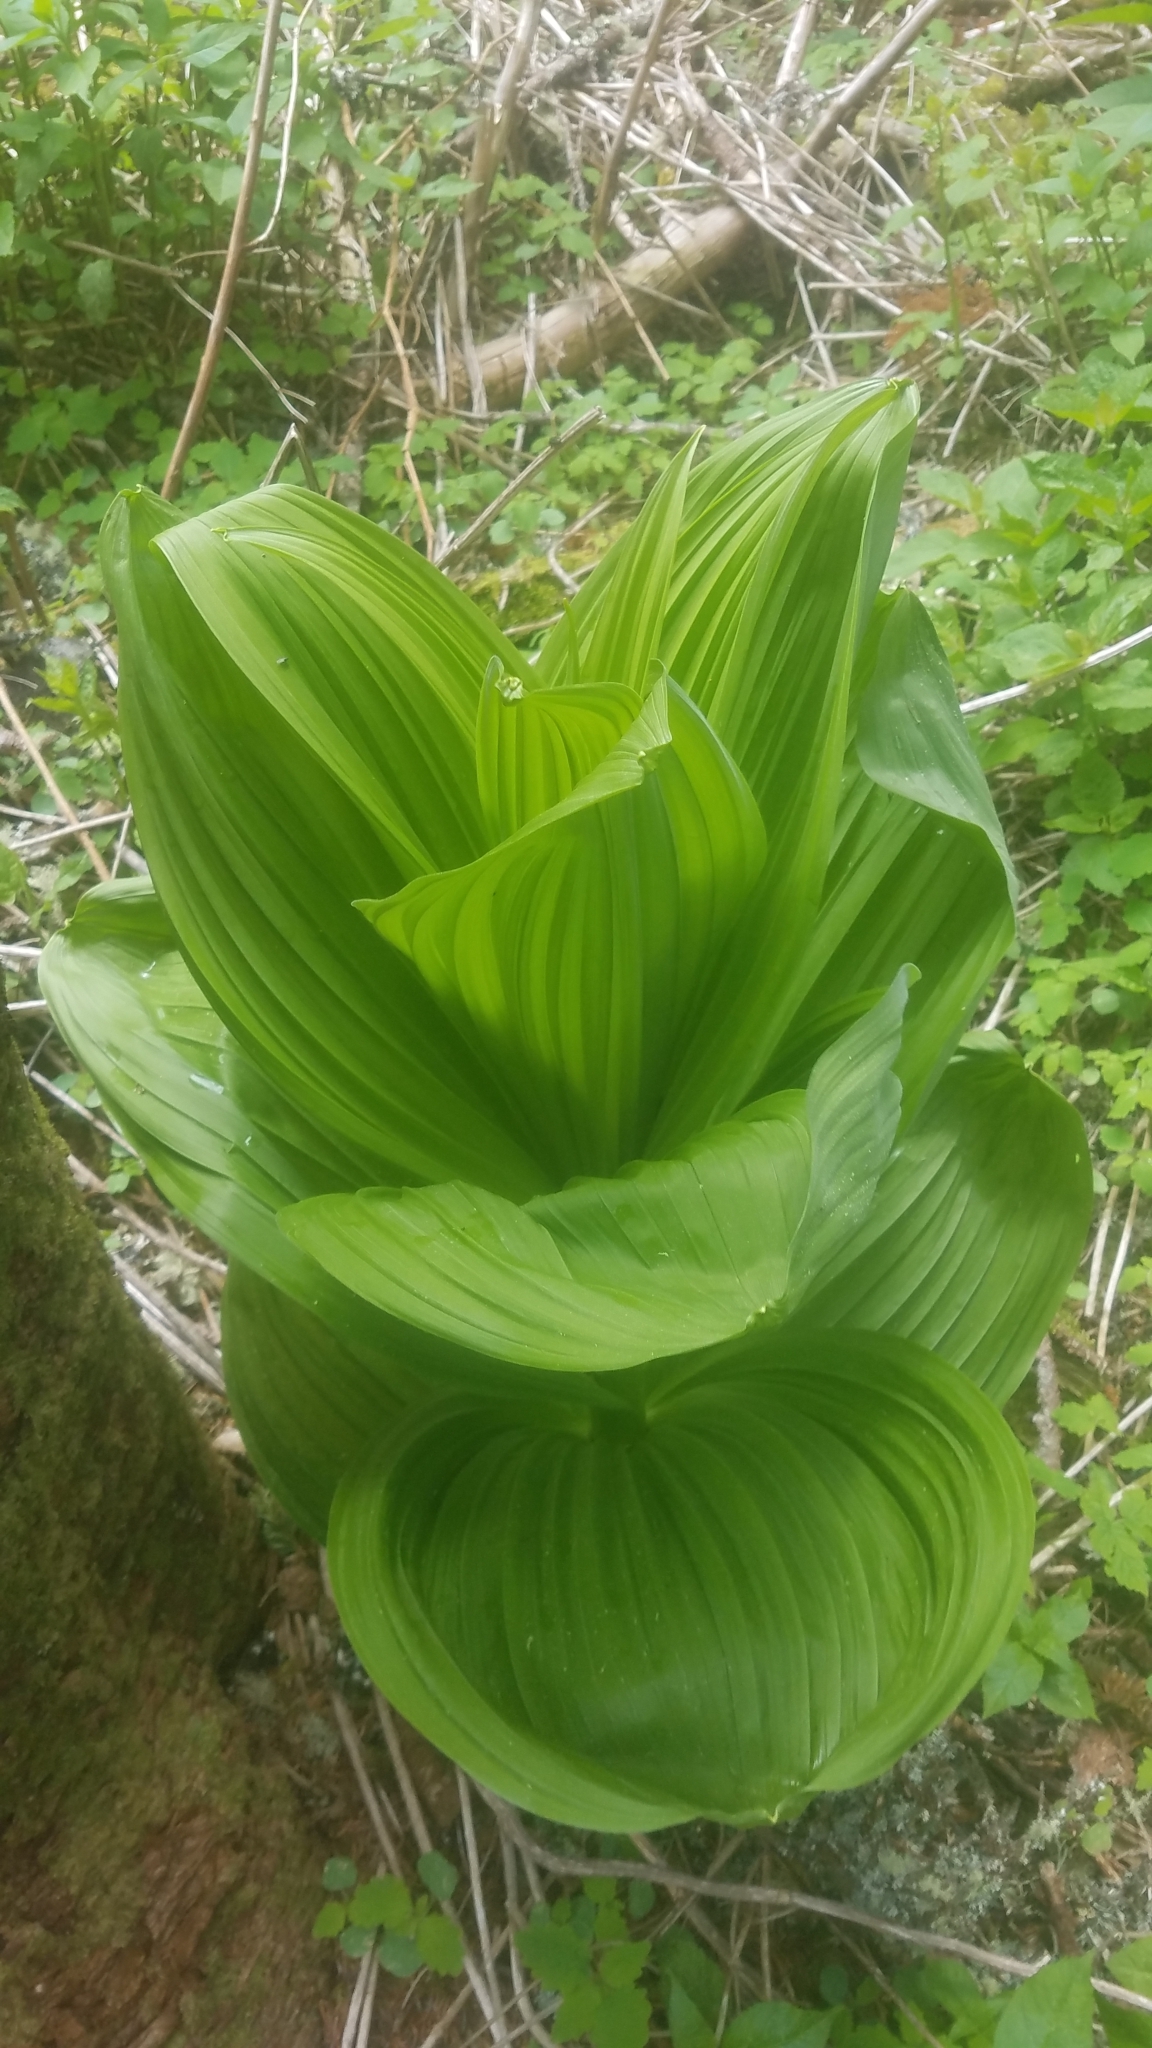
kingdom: Plantae
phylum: Tracheophyta
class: Liliopsida
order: Liliales
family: Melanthiaceae
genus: Veratrum
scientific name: Veratrum viride
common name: American false hellebore
